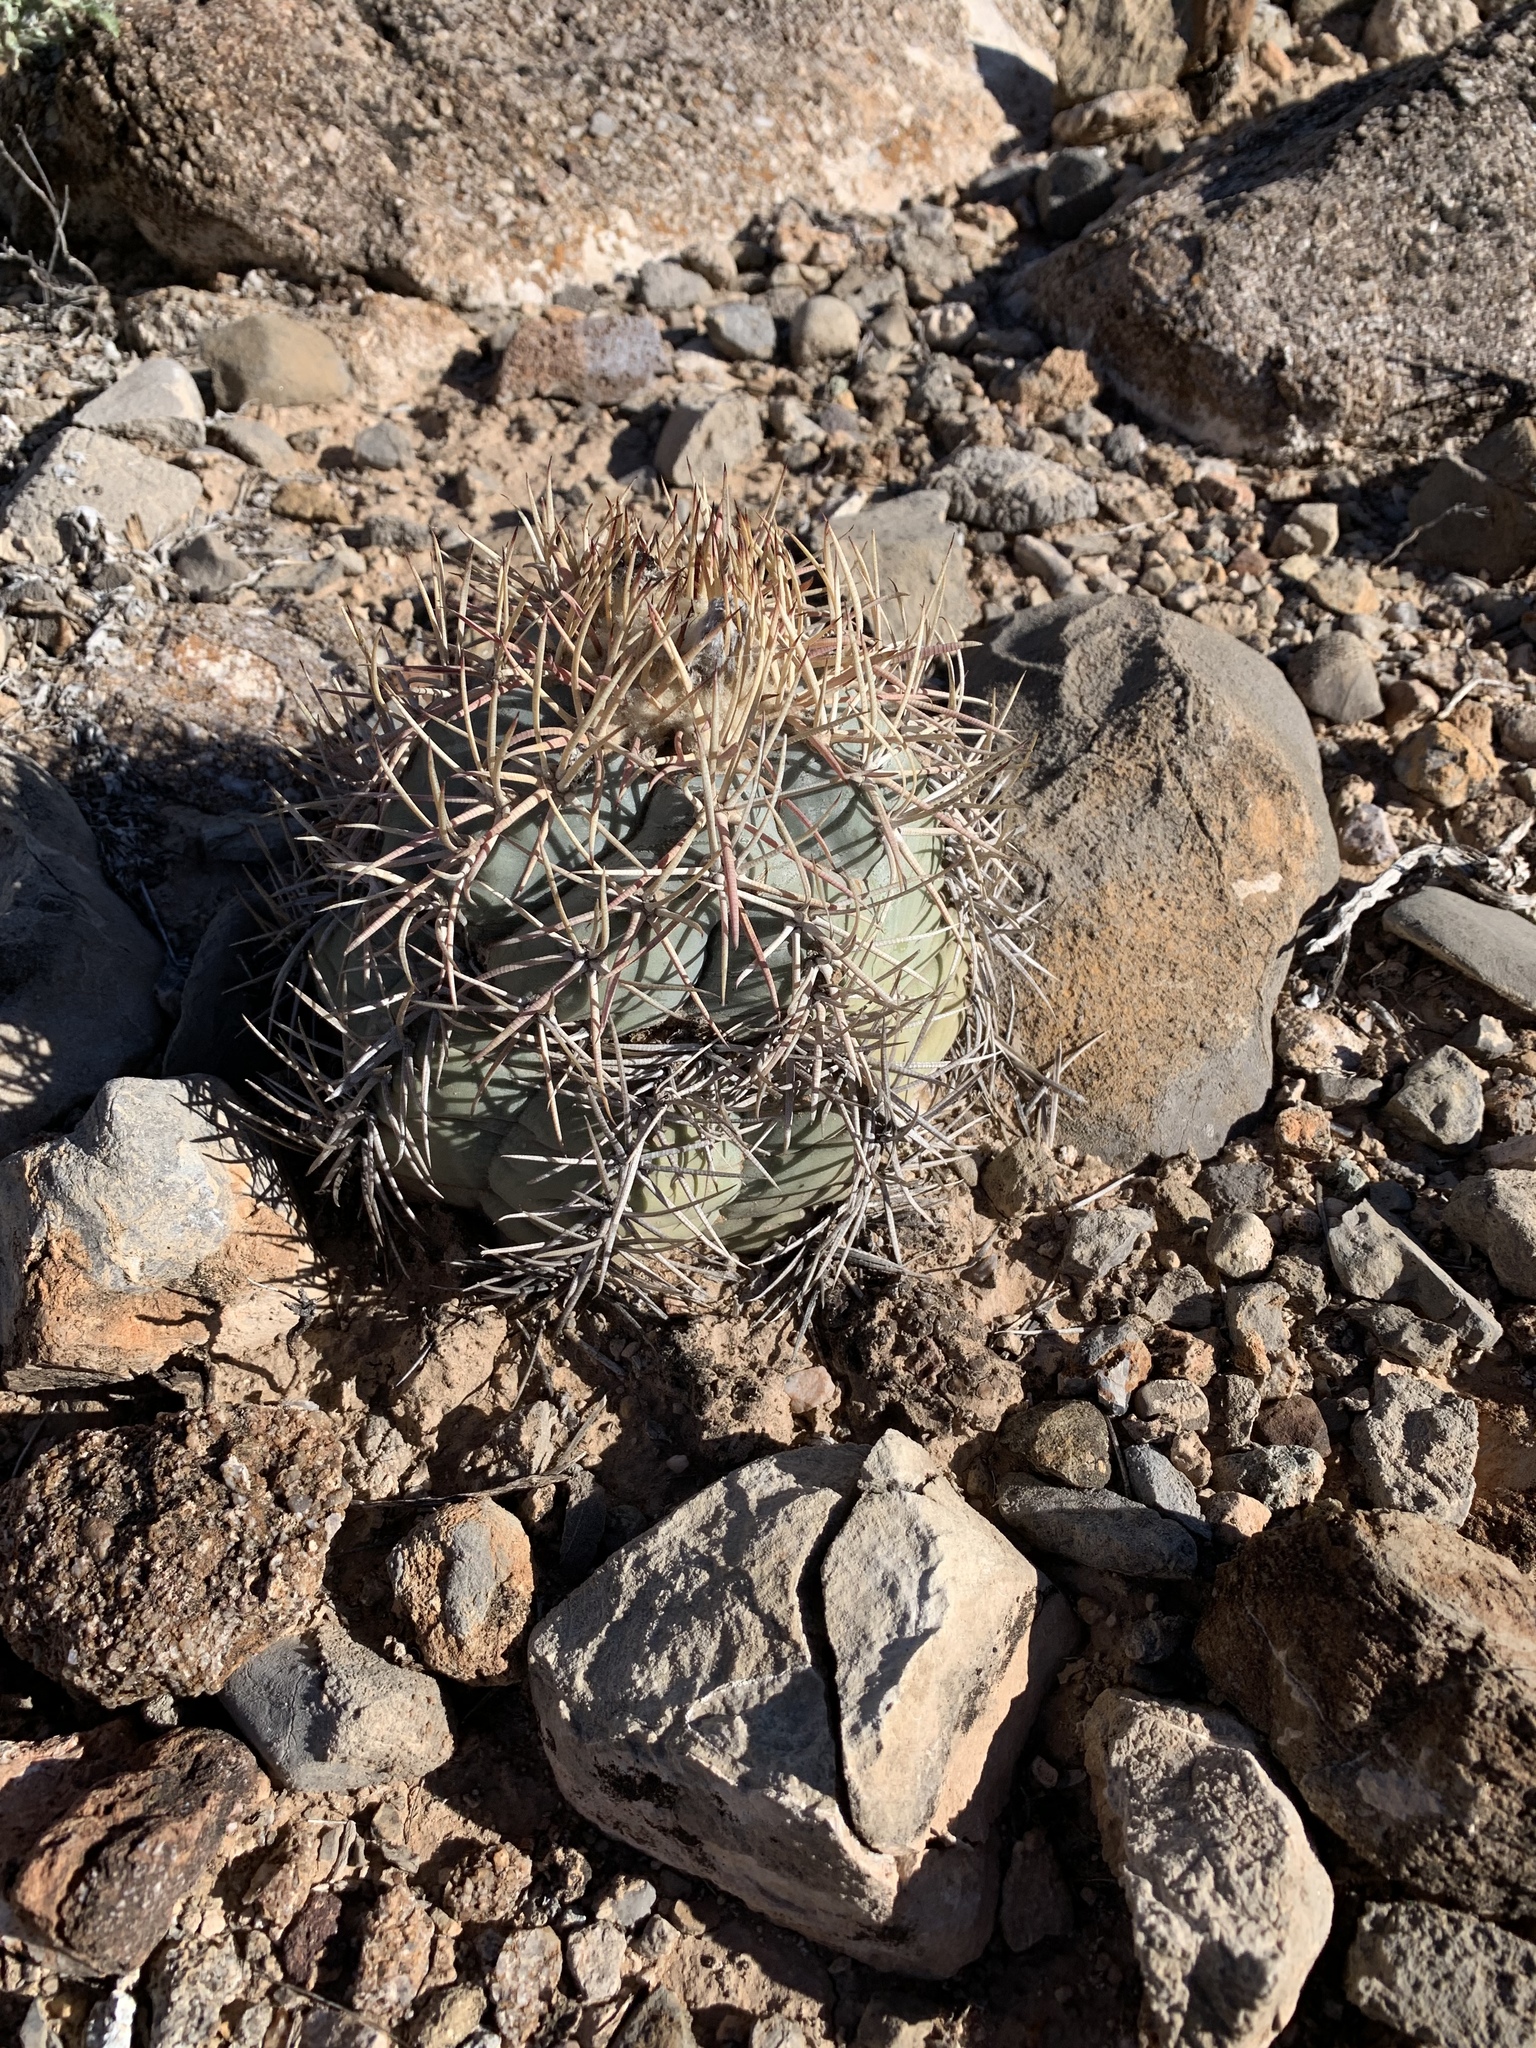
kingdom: Plantae
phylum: Tracheophyta
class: Magnoliopsida
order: Caryophyllales
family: Cactaceae
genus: Echinocactus
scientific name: Echinocactus horizonthalonius
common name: Devilshead
